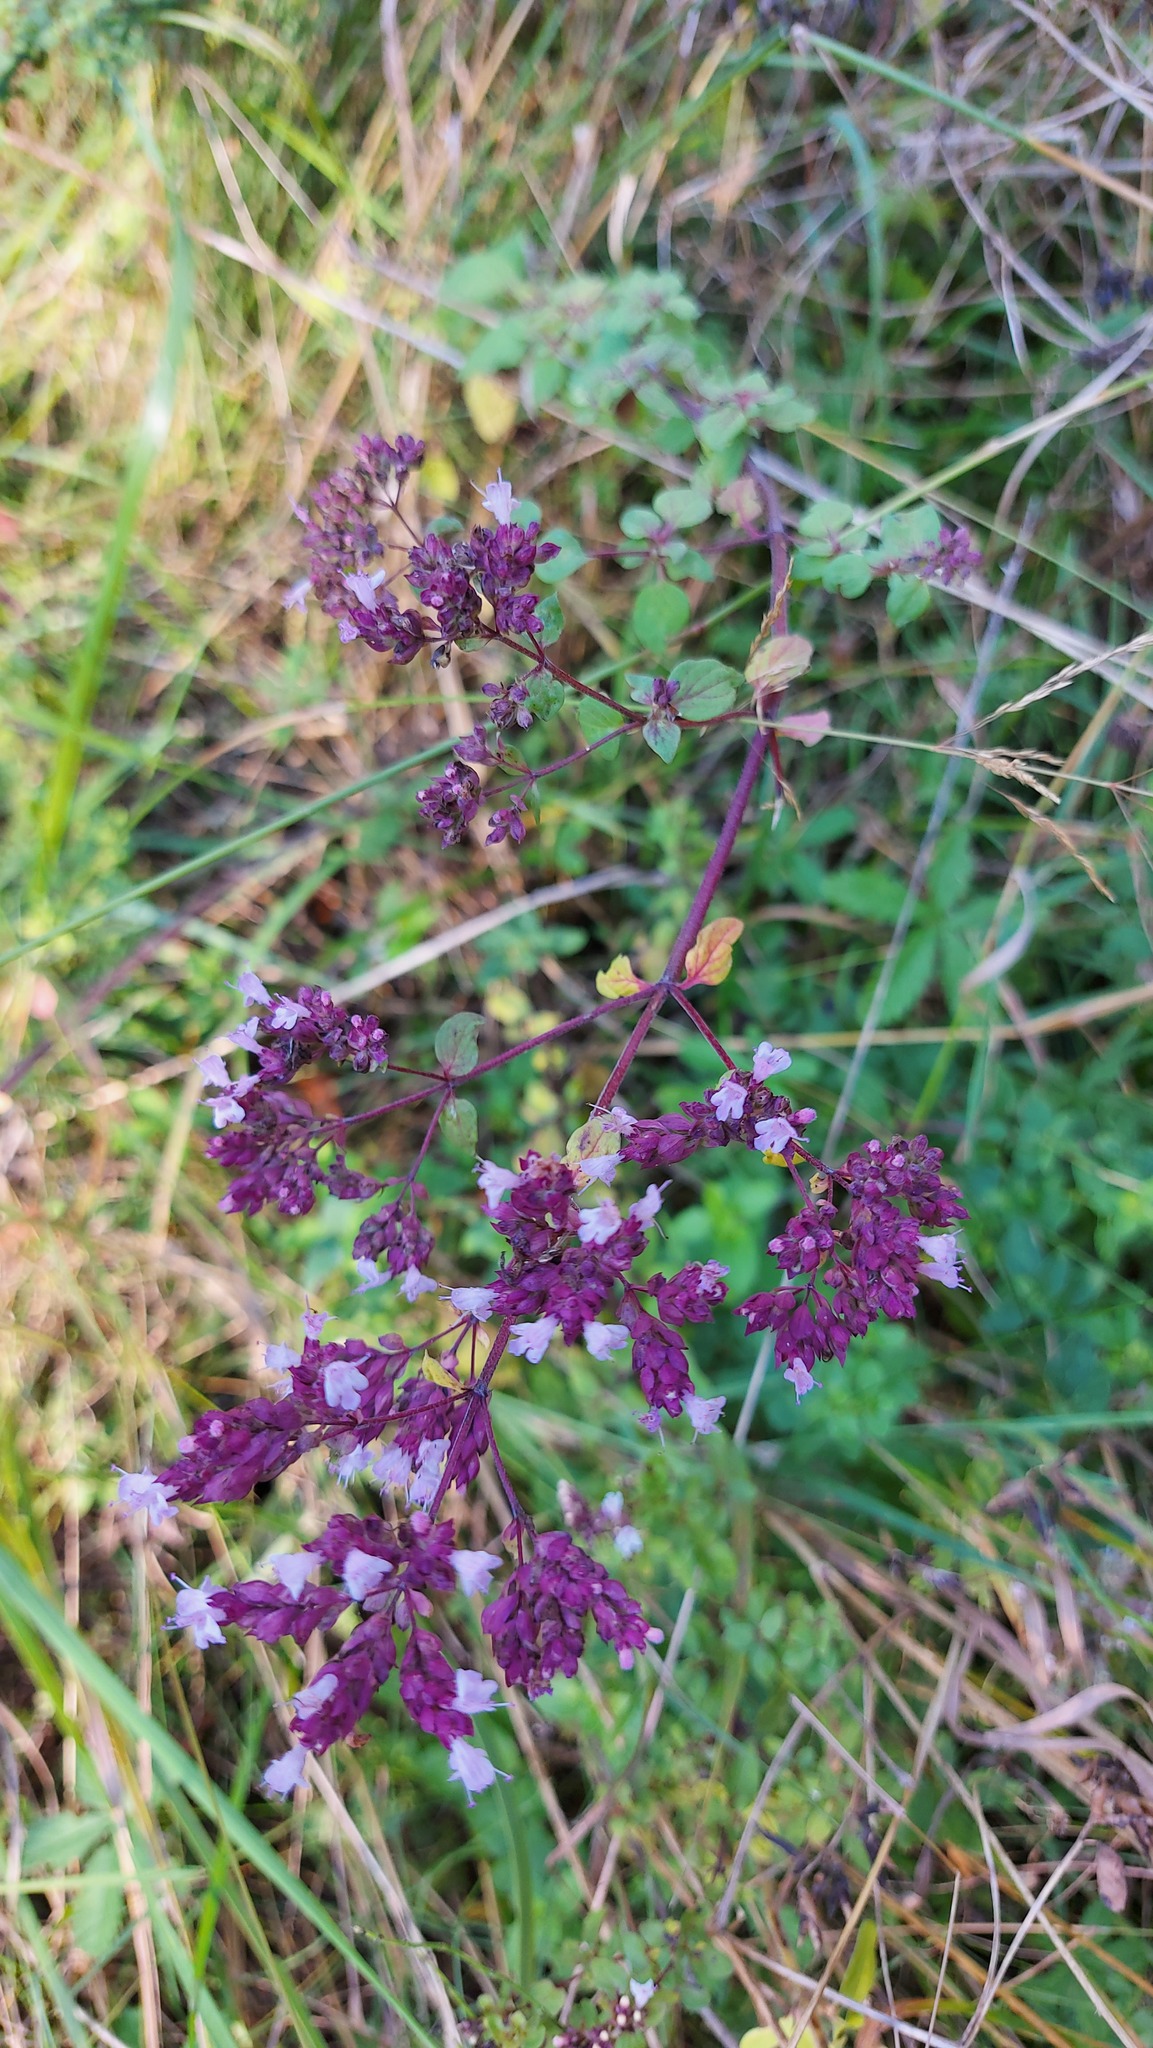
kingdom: Plantae
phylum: Tracheophyta
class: Magnoliopsida
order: Lamiales
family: Lamiaceae
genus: Origanum
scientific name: Origanum vulgare
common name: Wild marjoram
